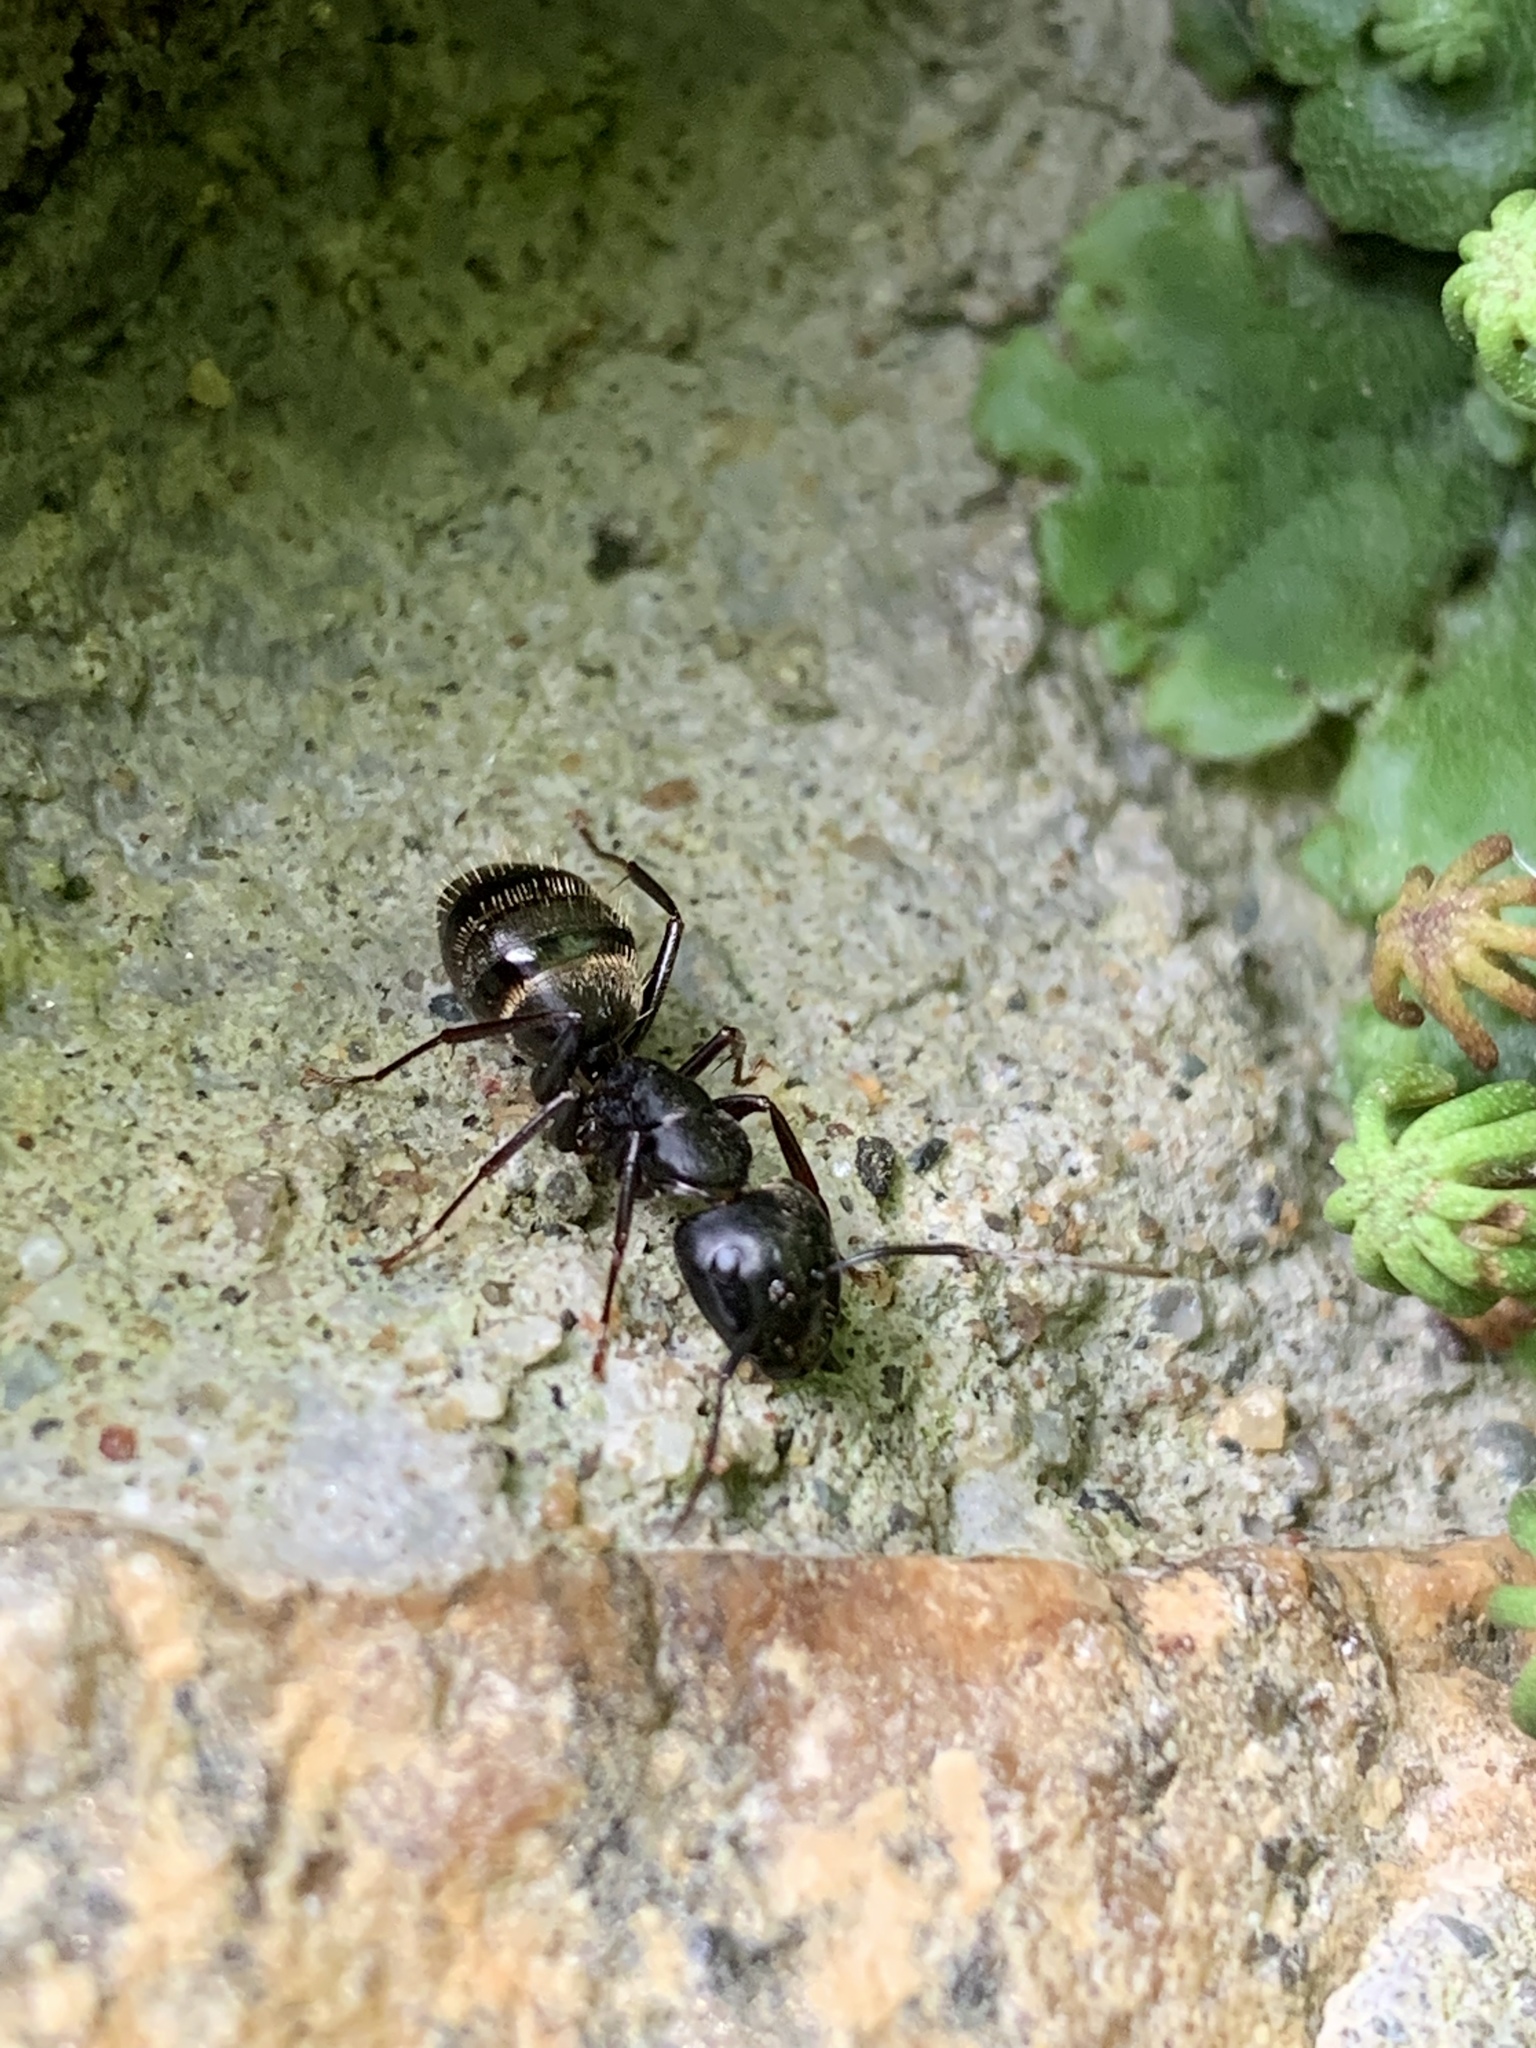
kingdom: Animalia
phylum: Arthropoda
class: Insecta
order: Hymenoptera
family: Formicidae
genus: Camponotus
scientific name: Camponotus pennsylvanicus
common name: Black carpenter ant
